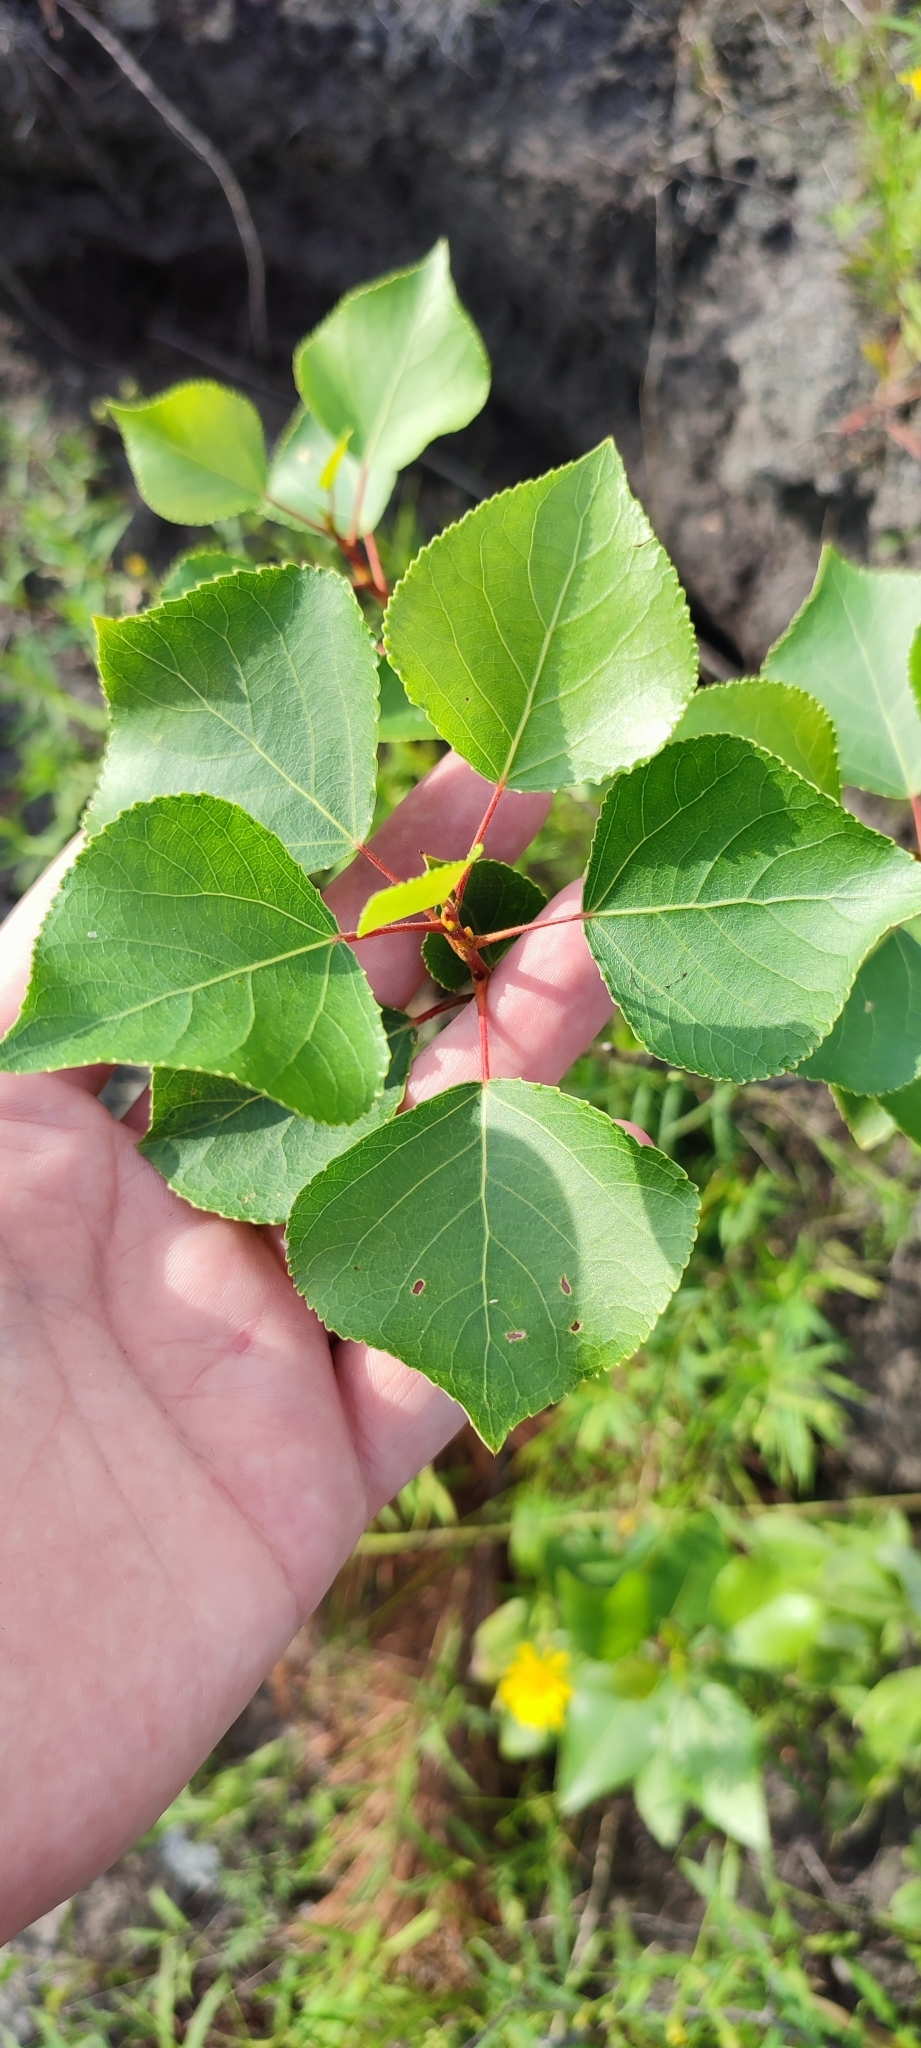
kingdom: Plantae
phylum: Tracheophyta
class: Magnoliopsida
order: Malpighiales
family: Salicaceae
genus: Populus
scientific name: Populus nigra
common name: Black poplar
